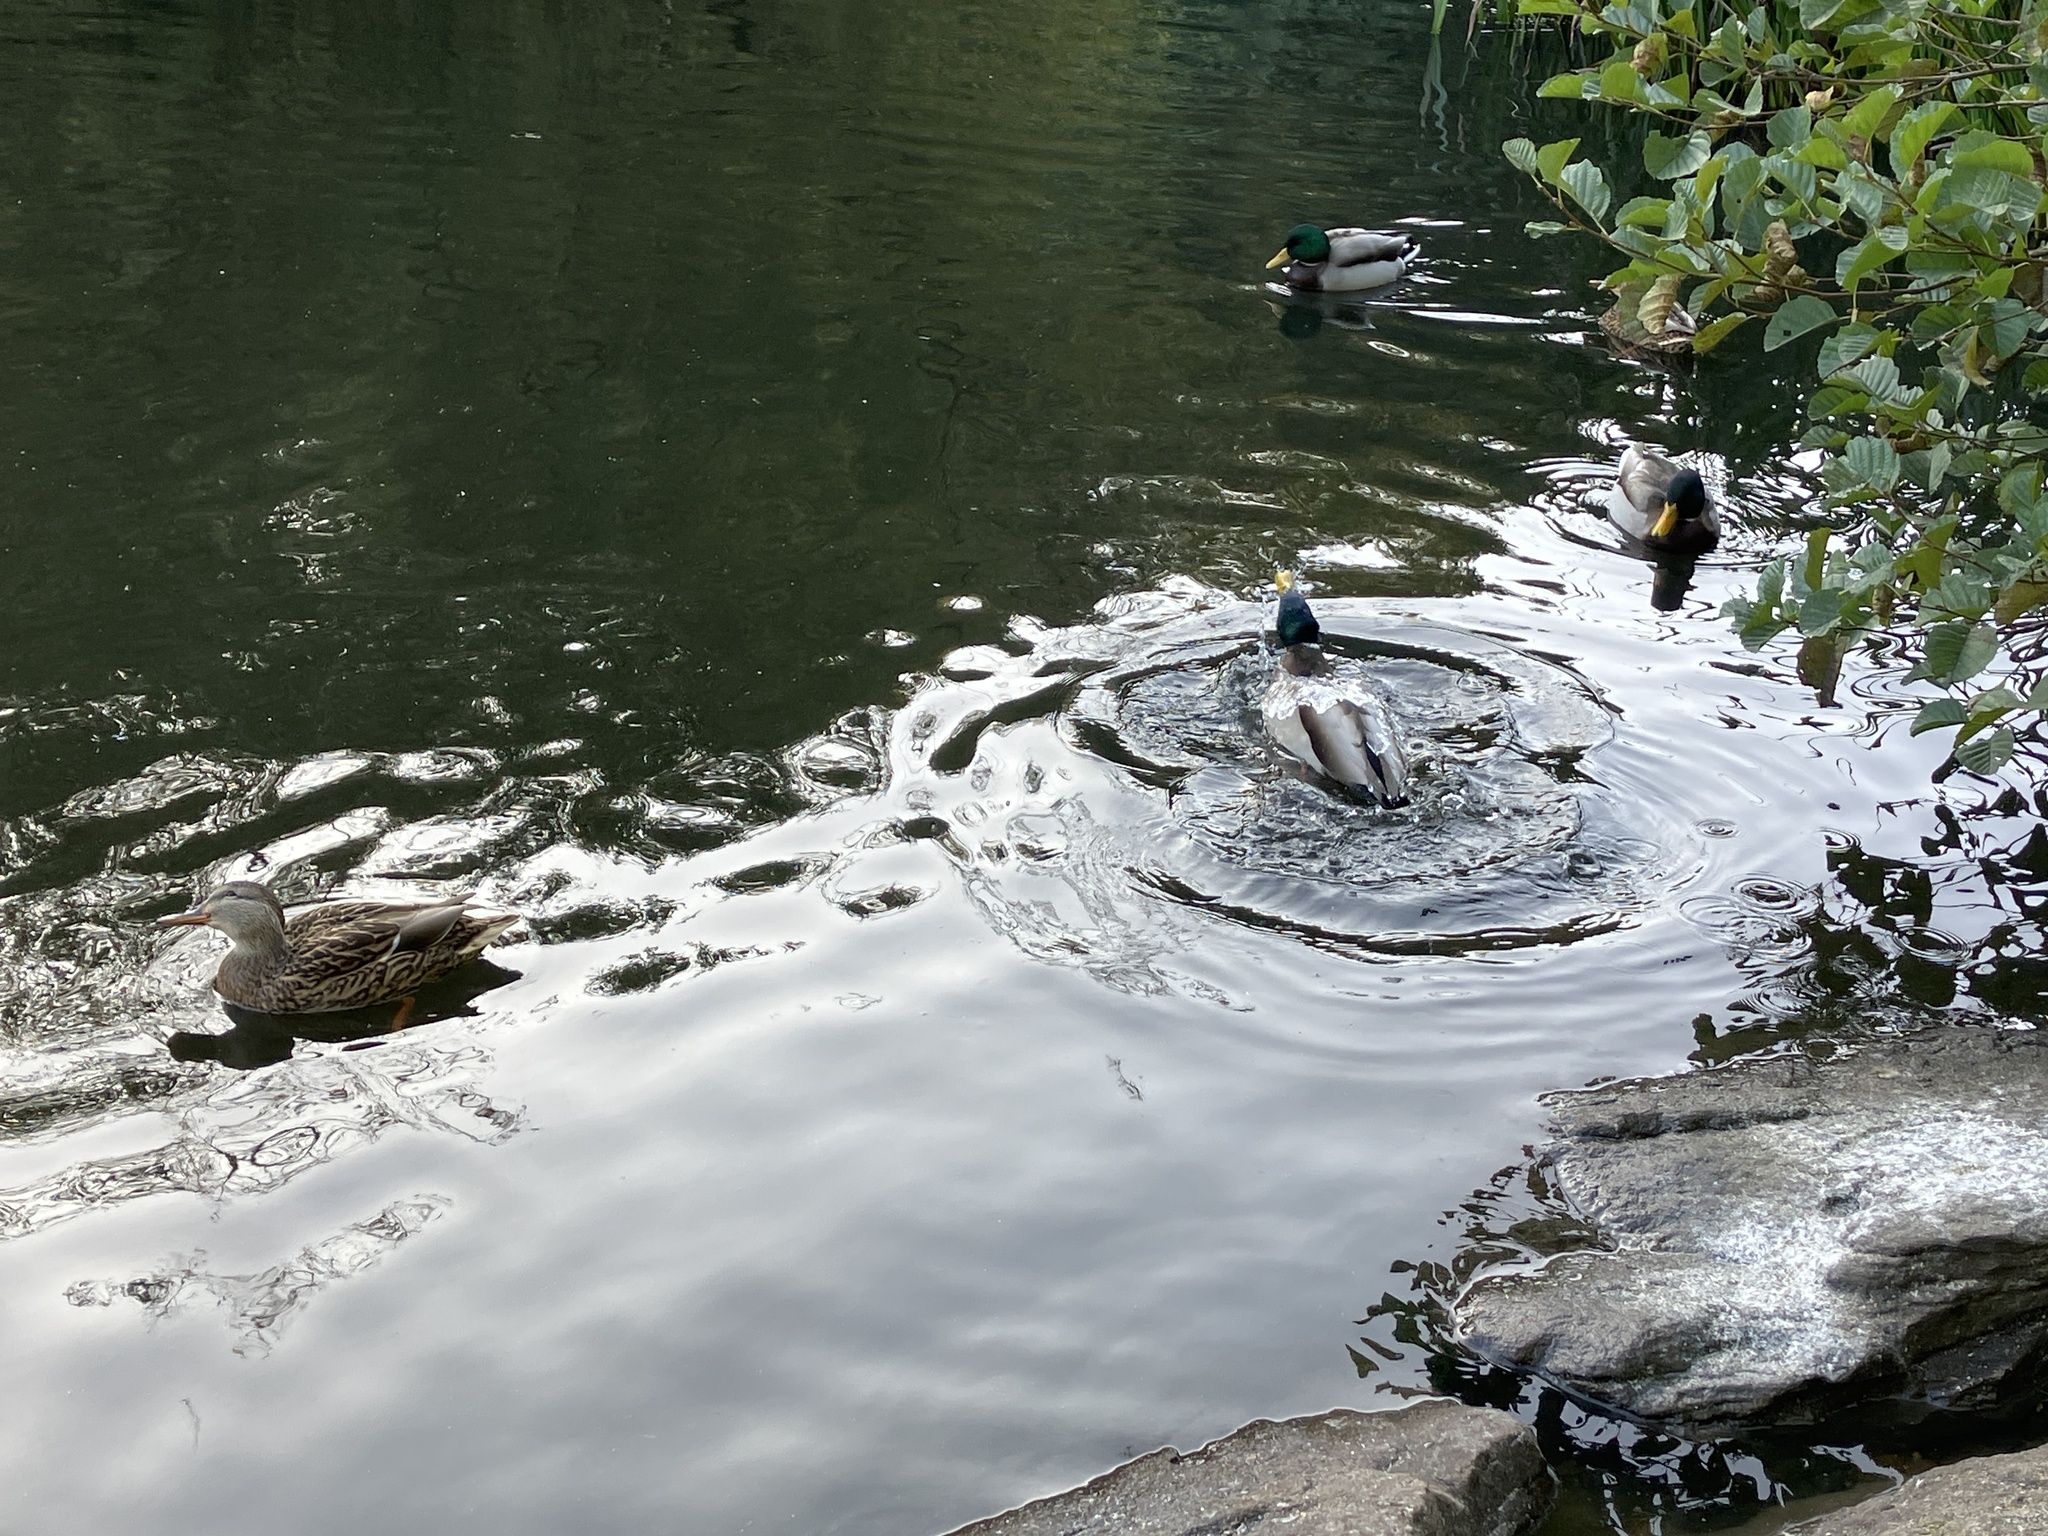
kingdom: Animalia
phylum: Chordata
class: Aves
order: Anseriformes
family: Anatidae
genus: Anas
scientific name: Anas platyrhynchos
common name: Mallard
